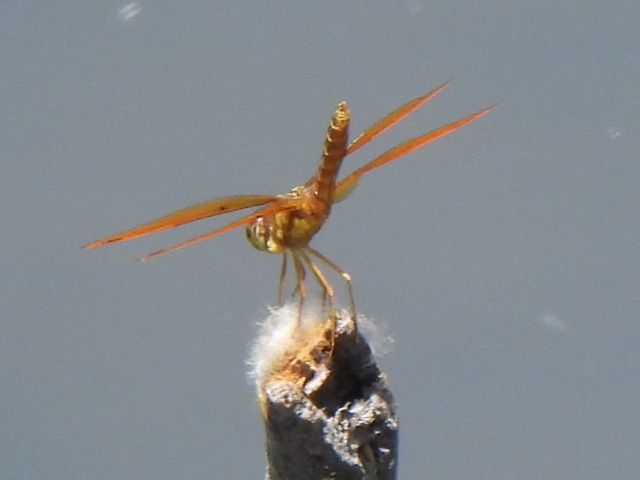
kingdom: Animalia
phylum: Arthropoda
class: Insecta
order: Odonata
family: Libellulidae
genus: Perithemis
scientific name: Perithemis tenera
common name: Eastern amberwing
